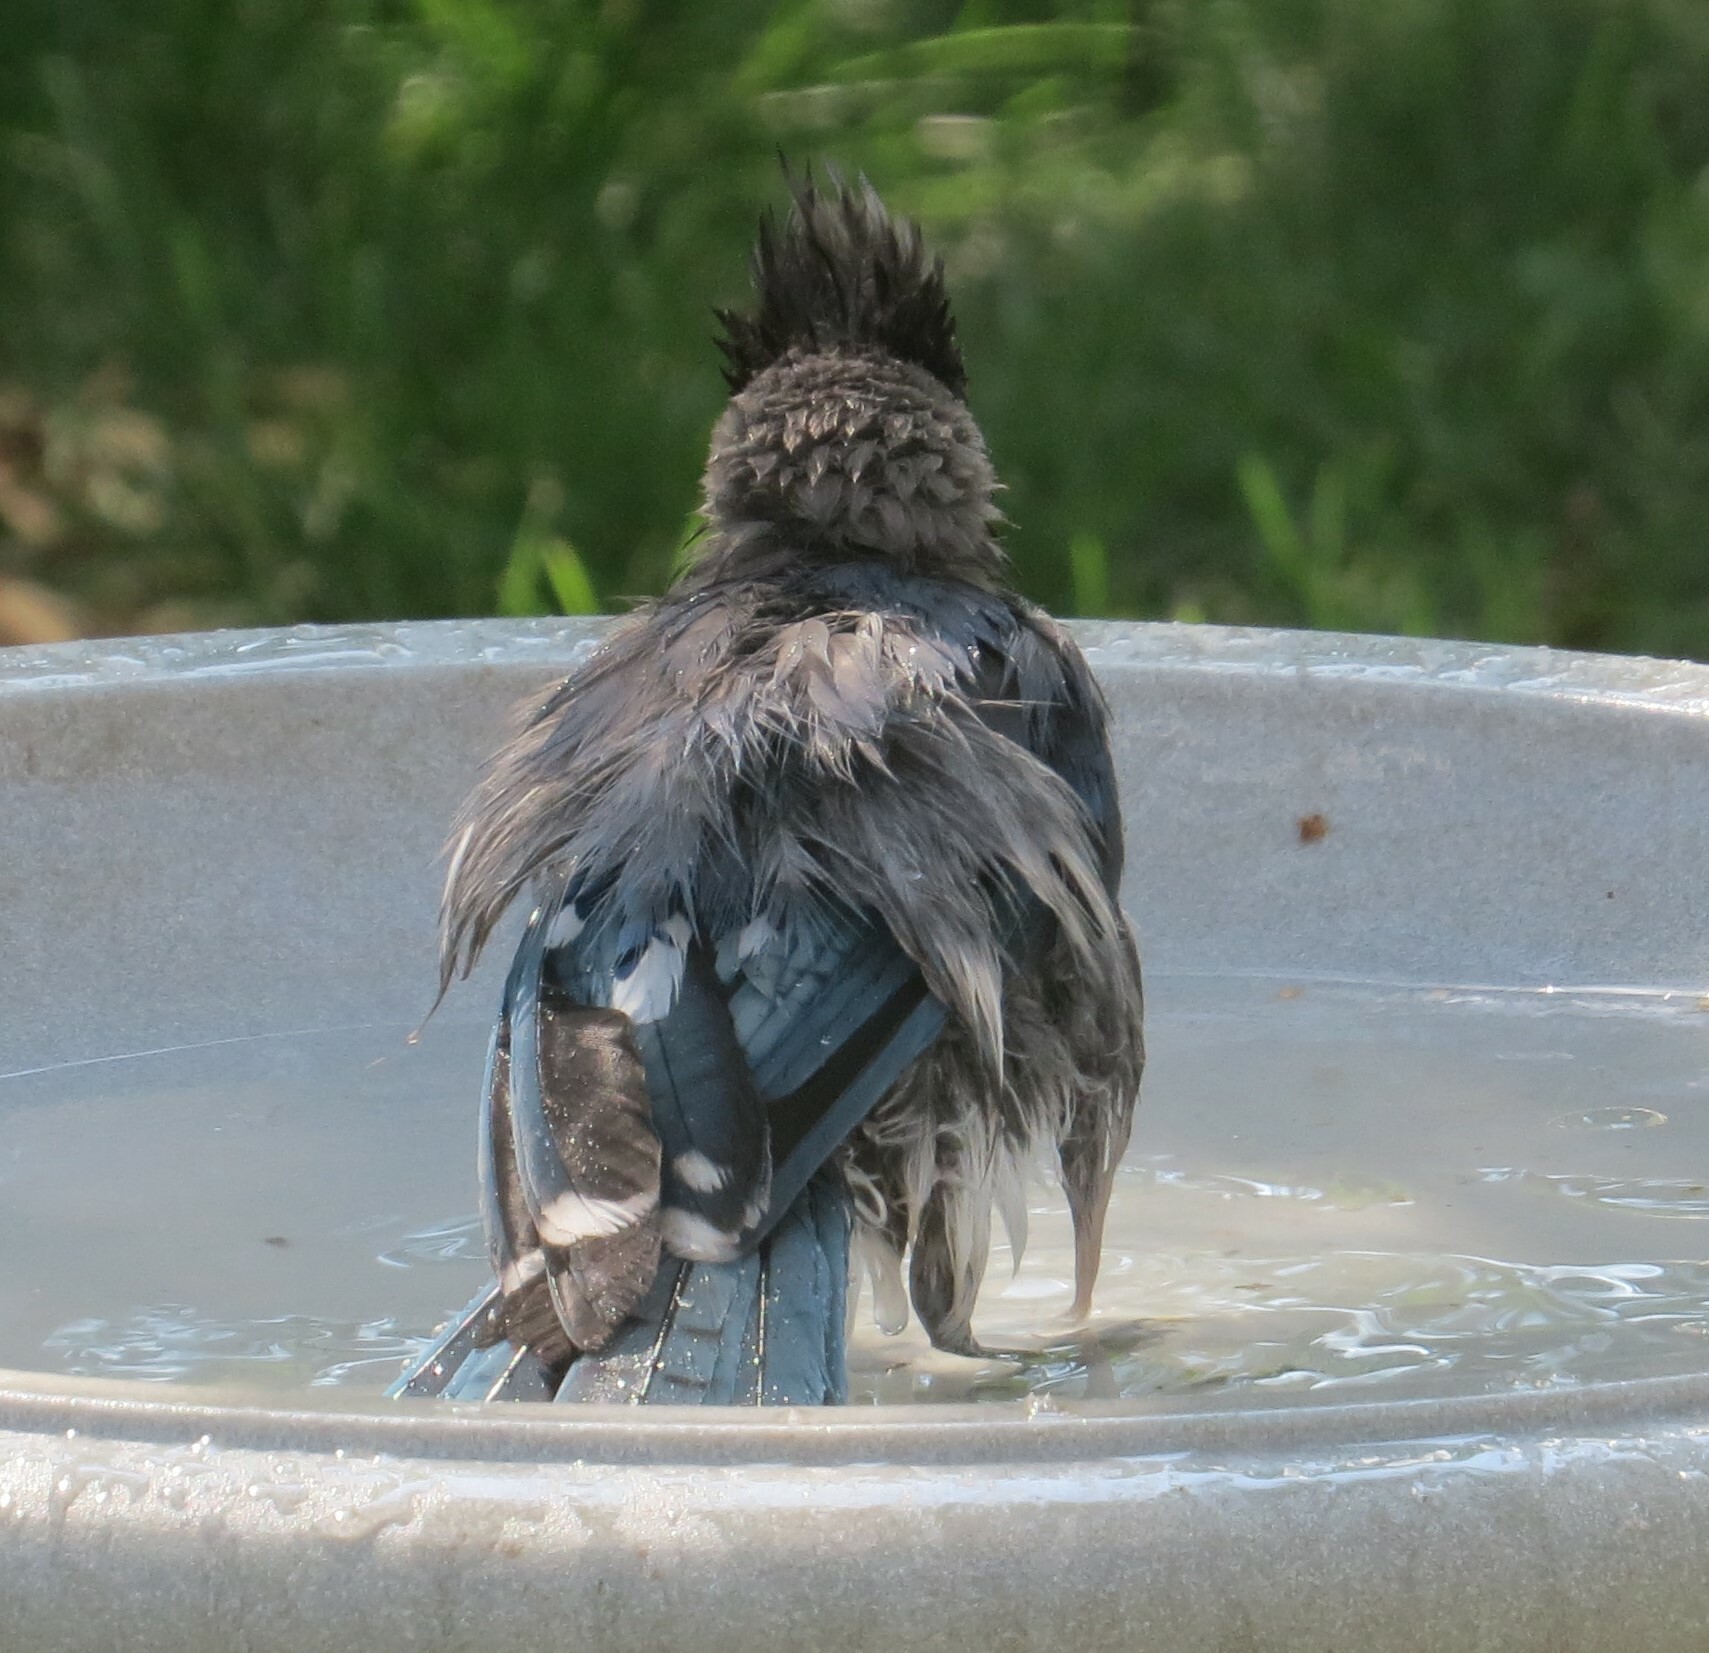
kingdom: Animalia
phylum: Chordata
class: Aves
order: Passeriformes
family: Corvidae
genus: Cyanocitta
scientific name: Cyanocitta cristata
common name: Blue jay
